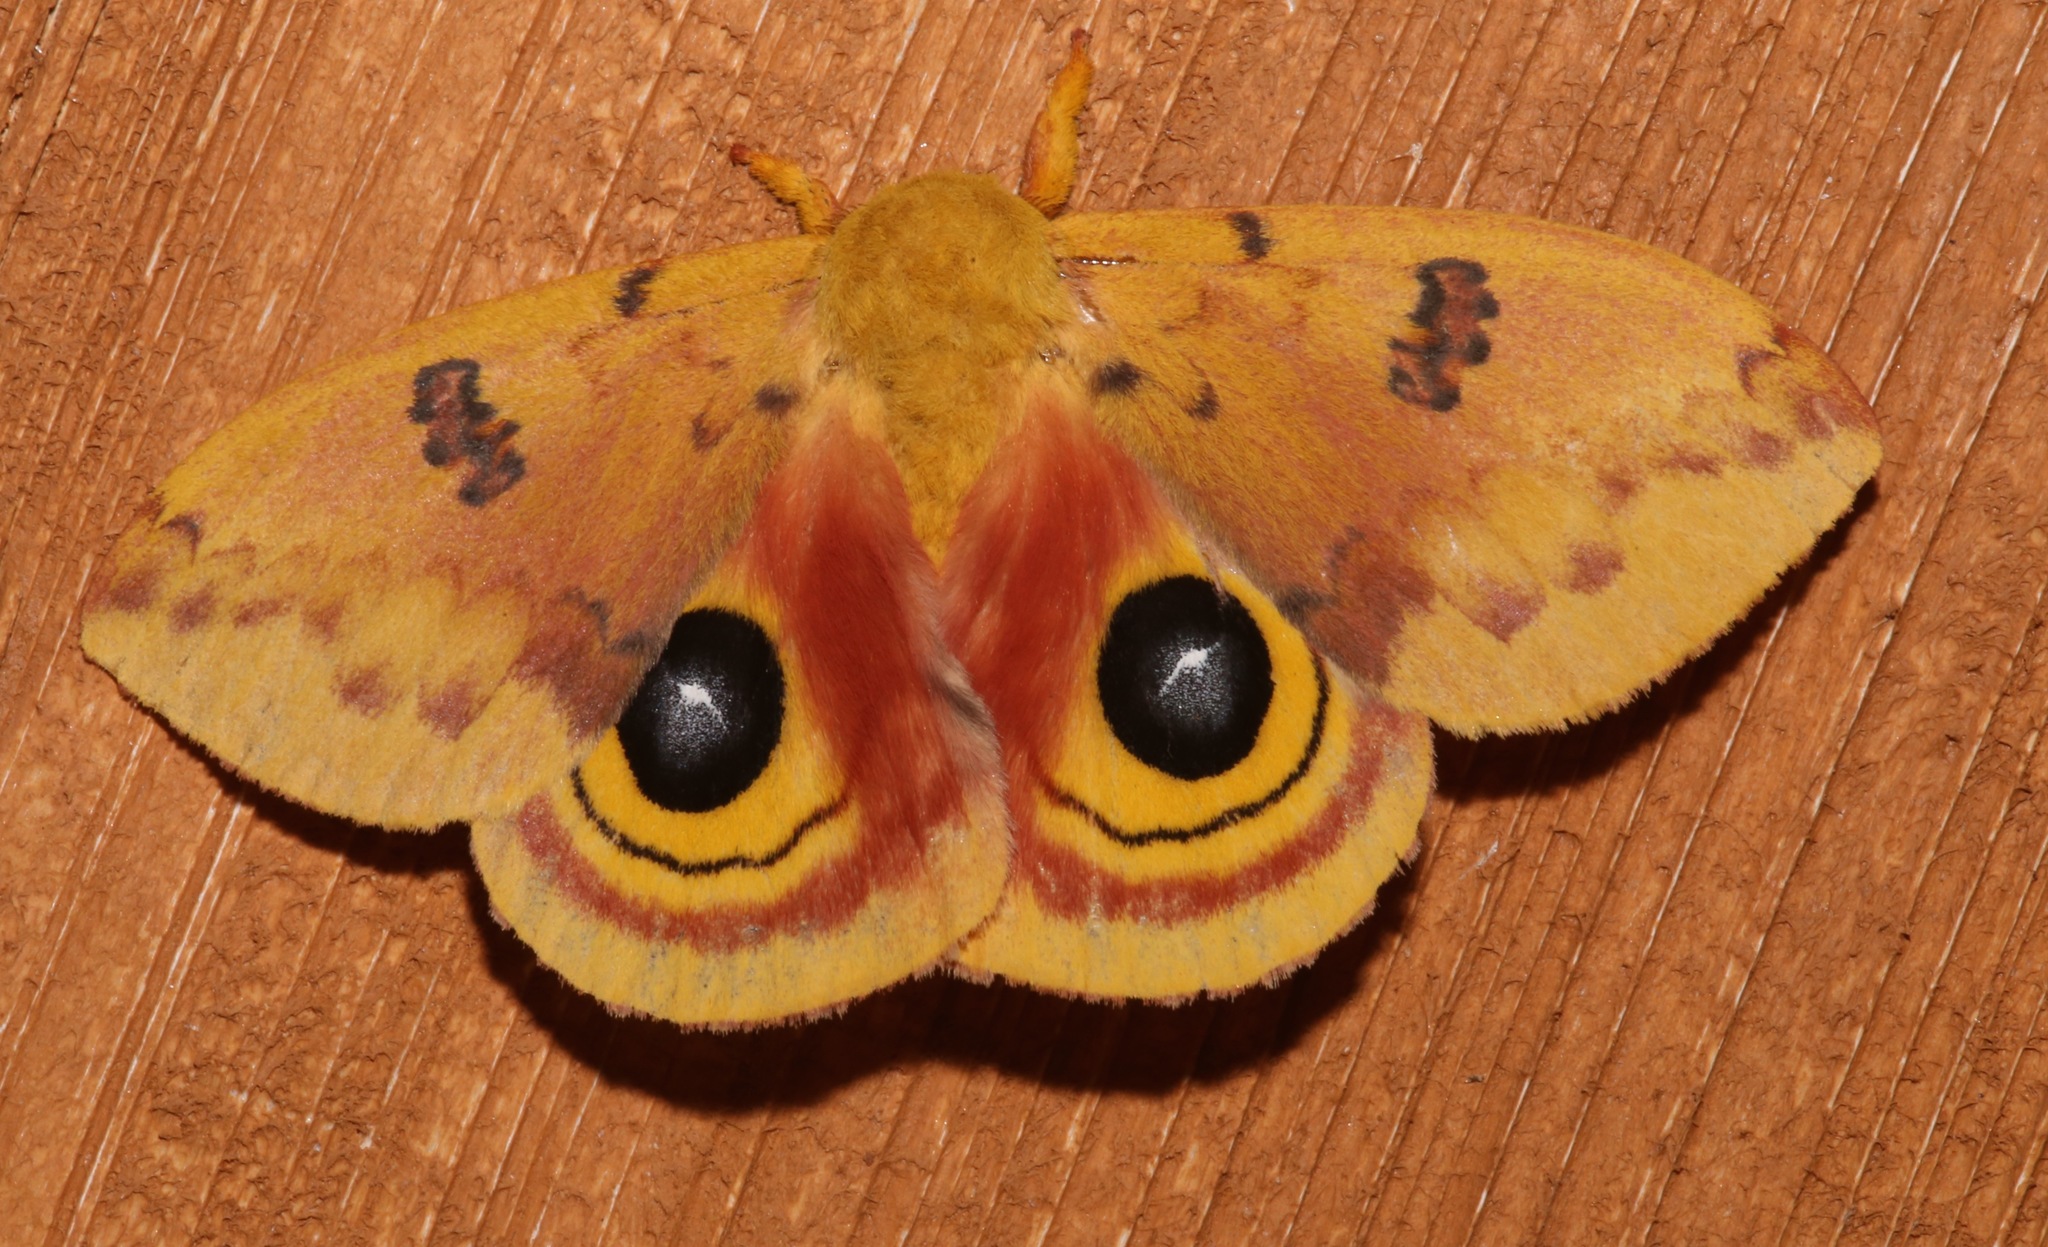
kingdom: Animalia
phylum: Arthropoda
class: Insecta
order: Lepidoptera
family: Saturniidae
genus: Automeris
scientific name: Automeris io
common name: Io moth
